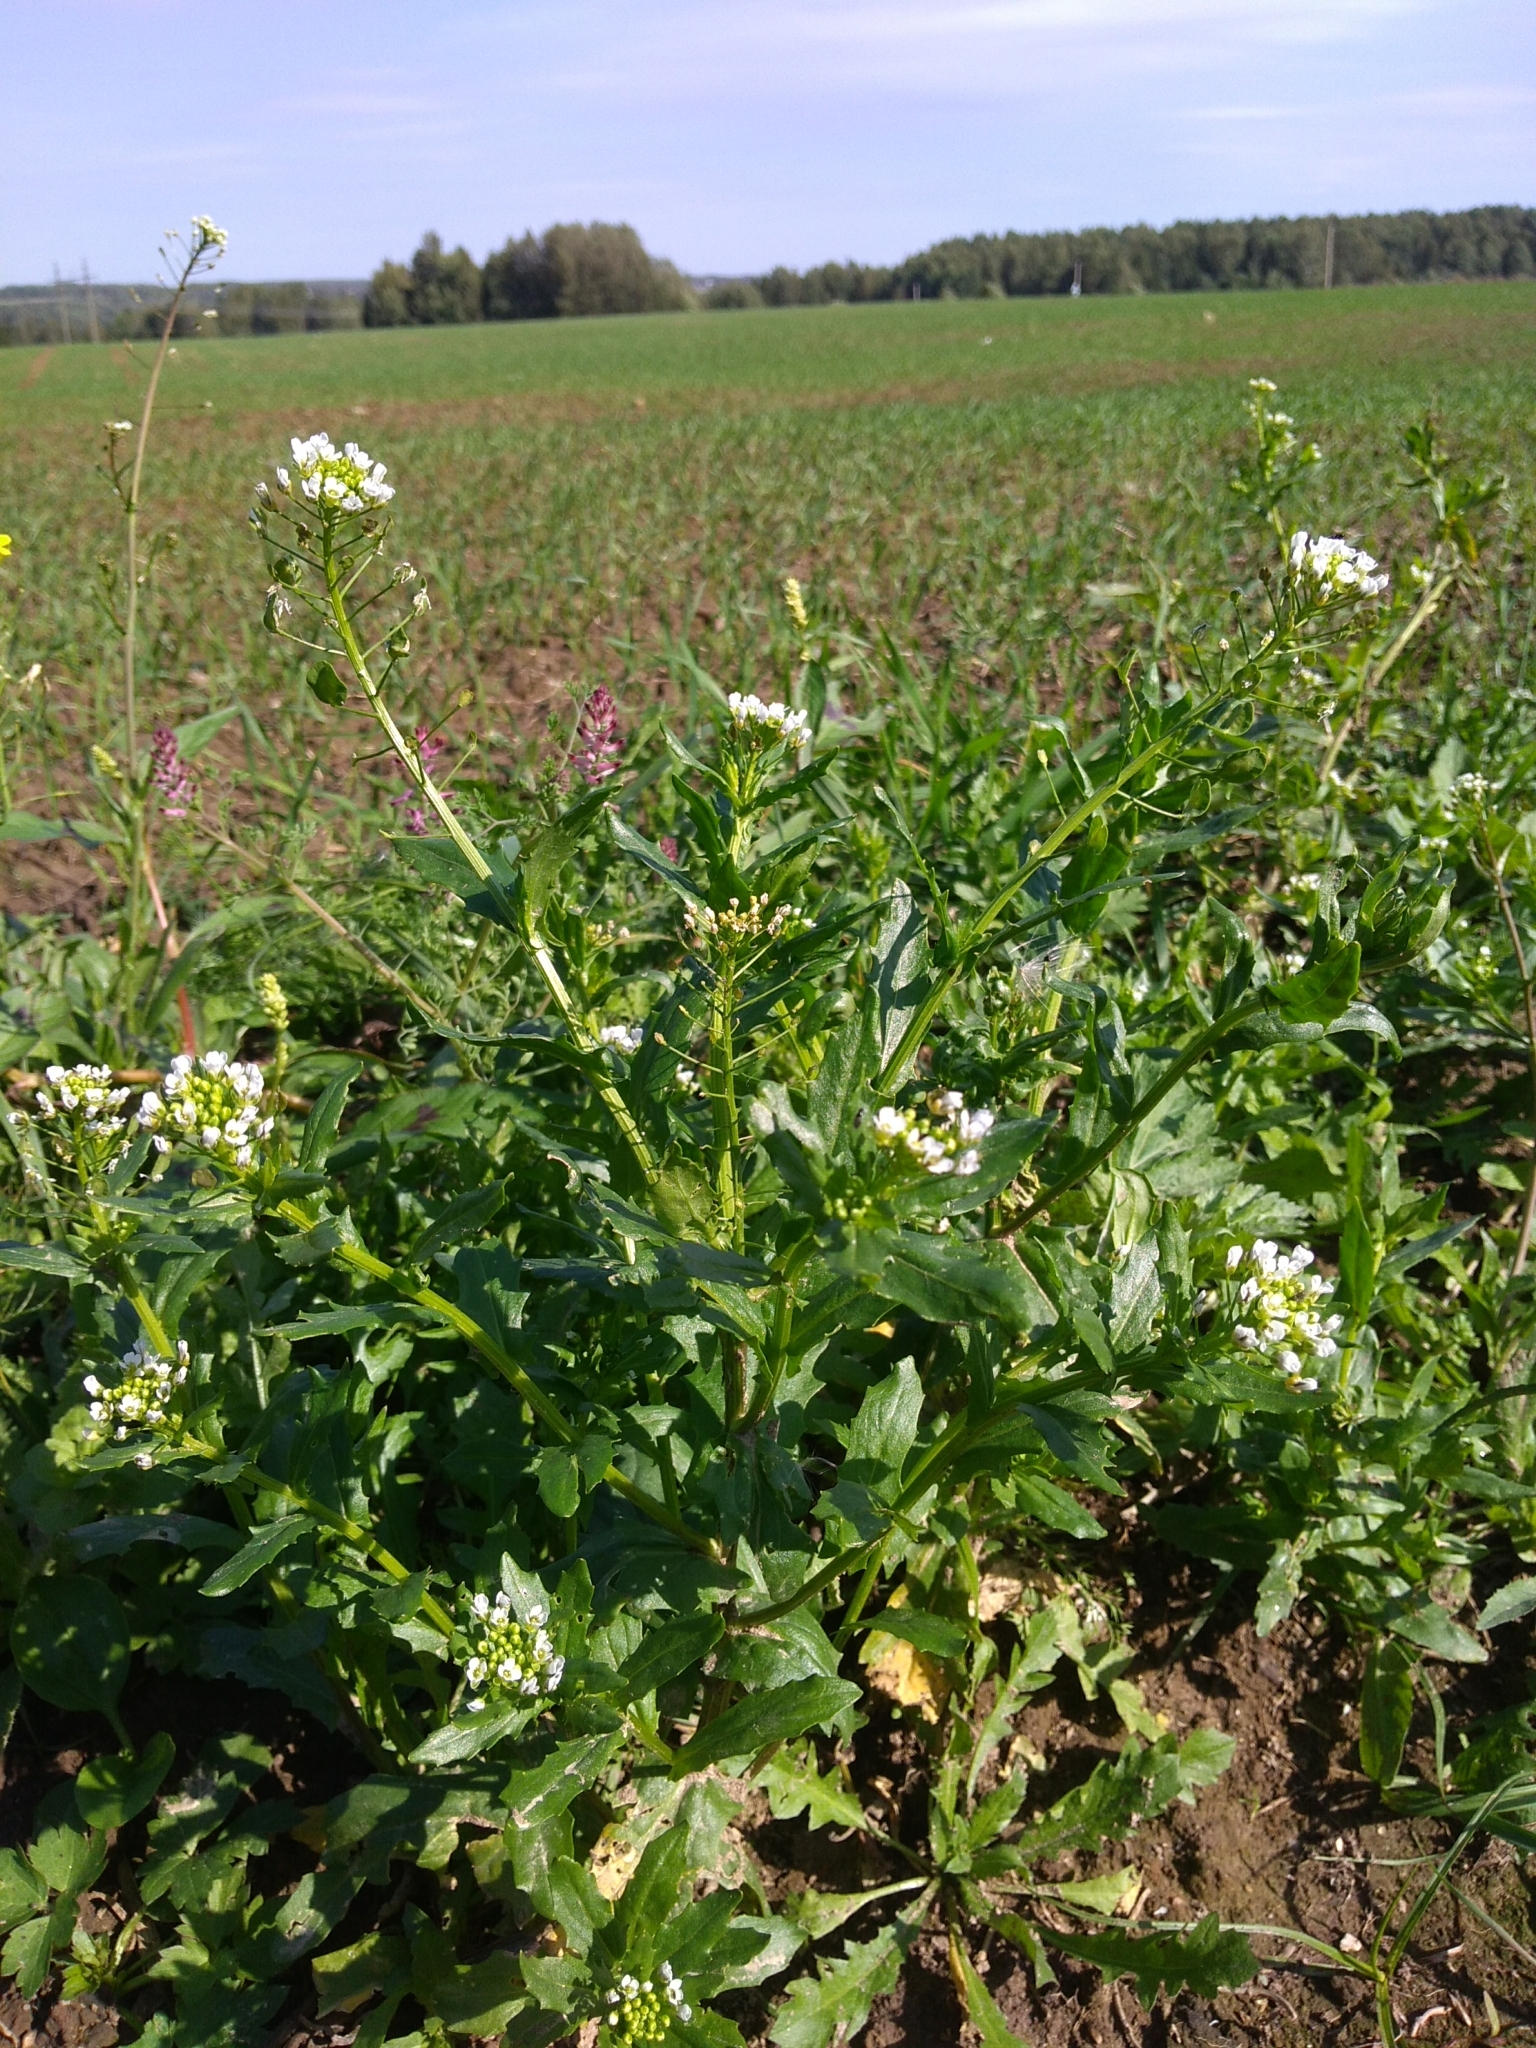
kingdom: Plantae
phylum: Tracheophyta
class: Magnoliopsida
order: Brassicales
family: Brassicaceae
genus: Thlaspi
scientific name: Thlaspi arvense
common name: Field pennycress
